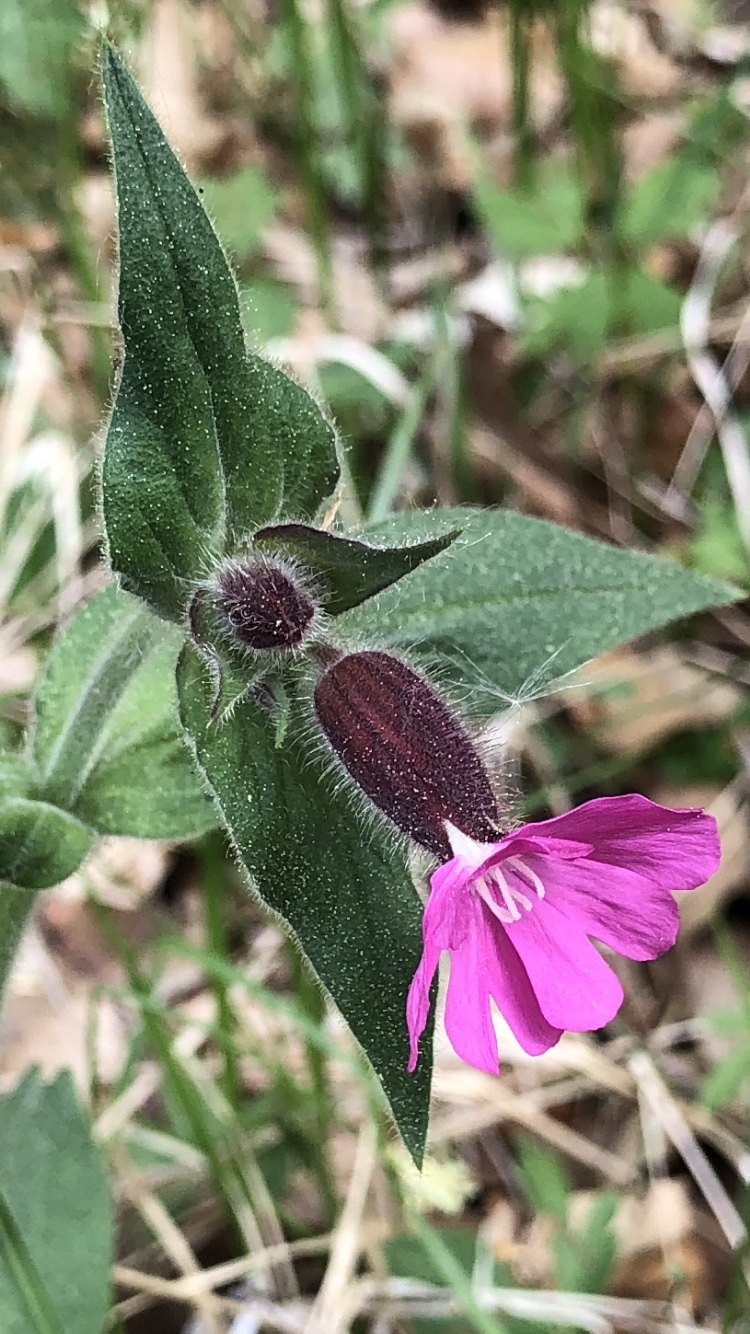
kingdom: Plantae
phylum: Tracheophyta
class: Magnoliopsida
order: Caryophyllales
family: Caryophyllaceae
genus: Silene
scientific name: Silene dioica
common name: Red campion
